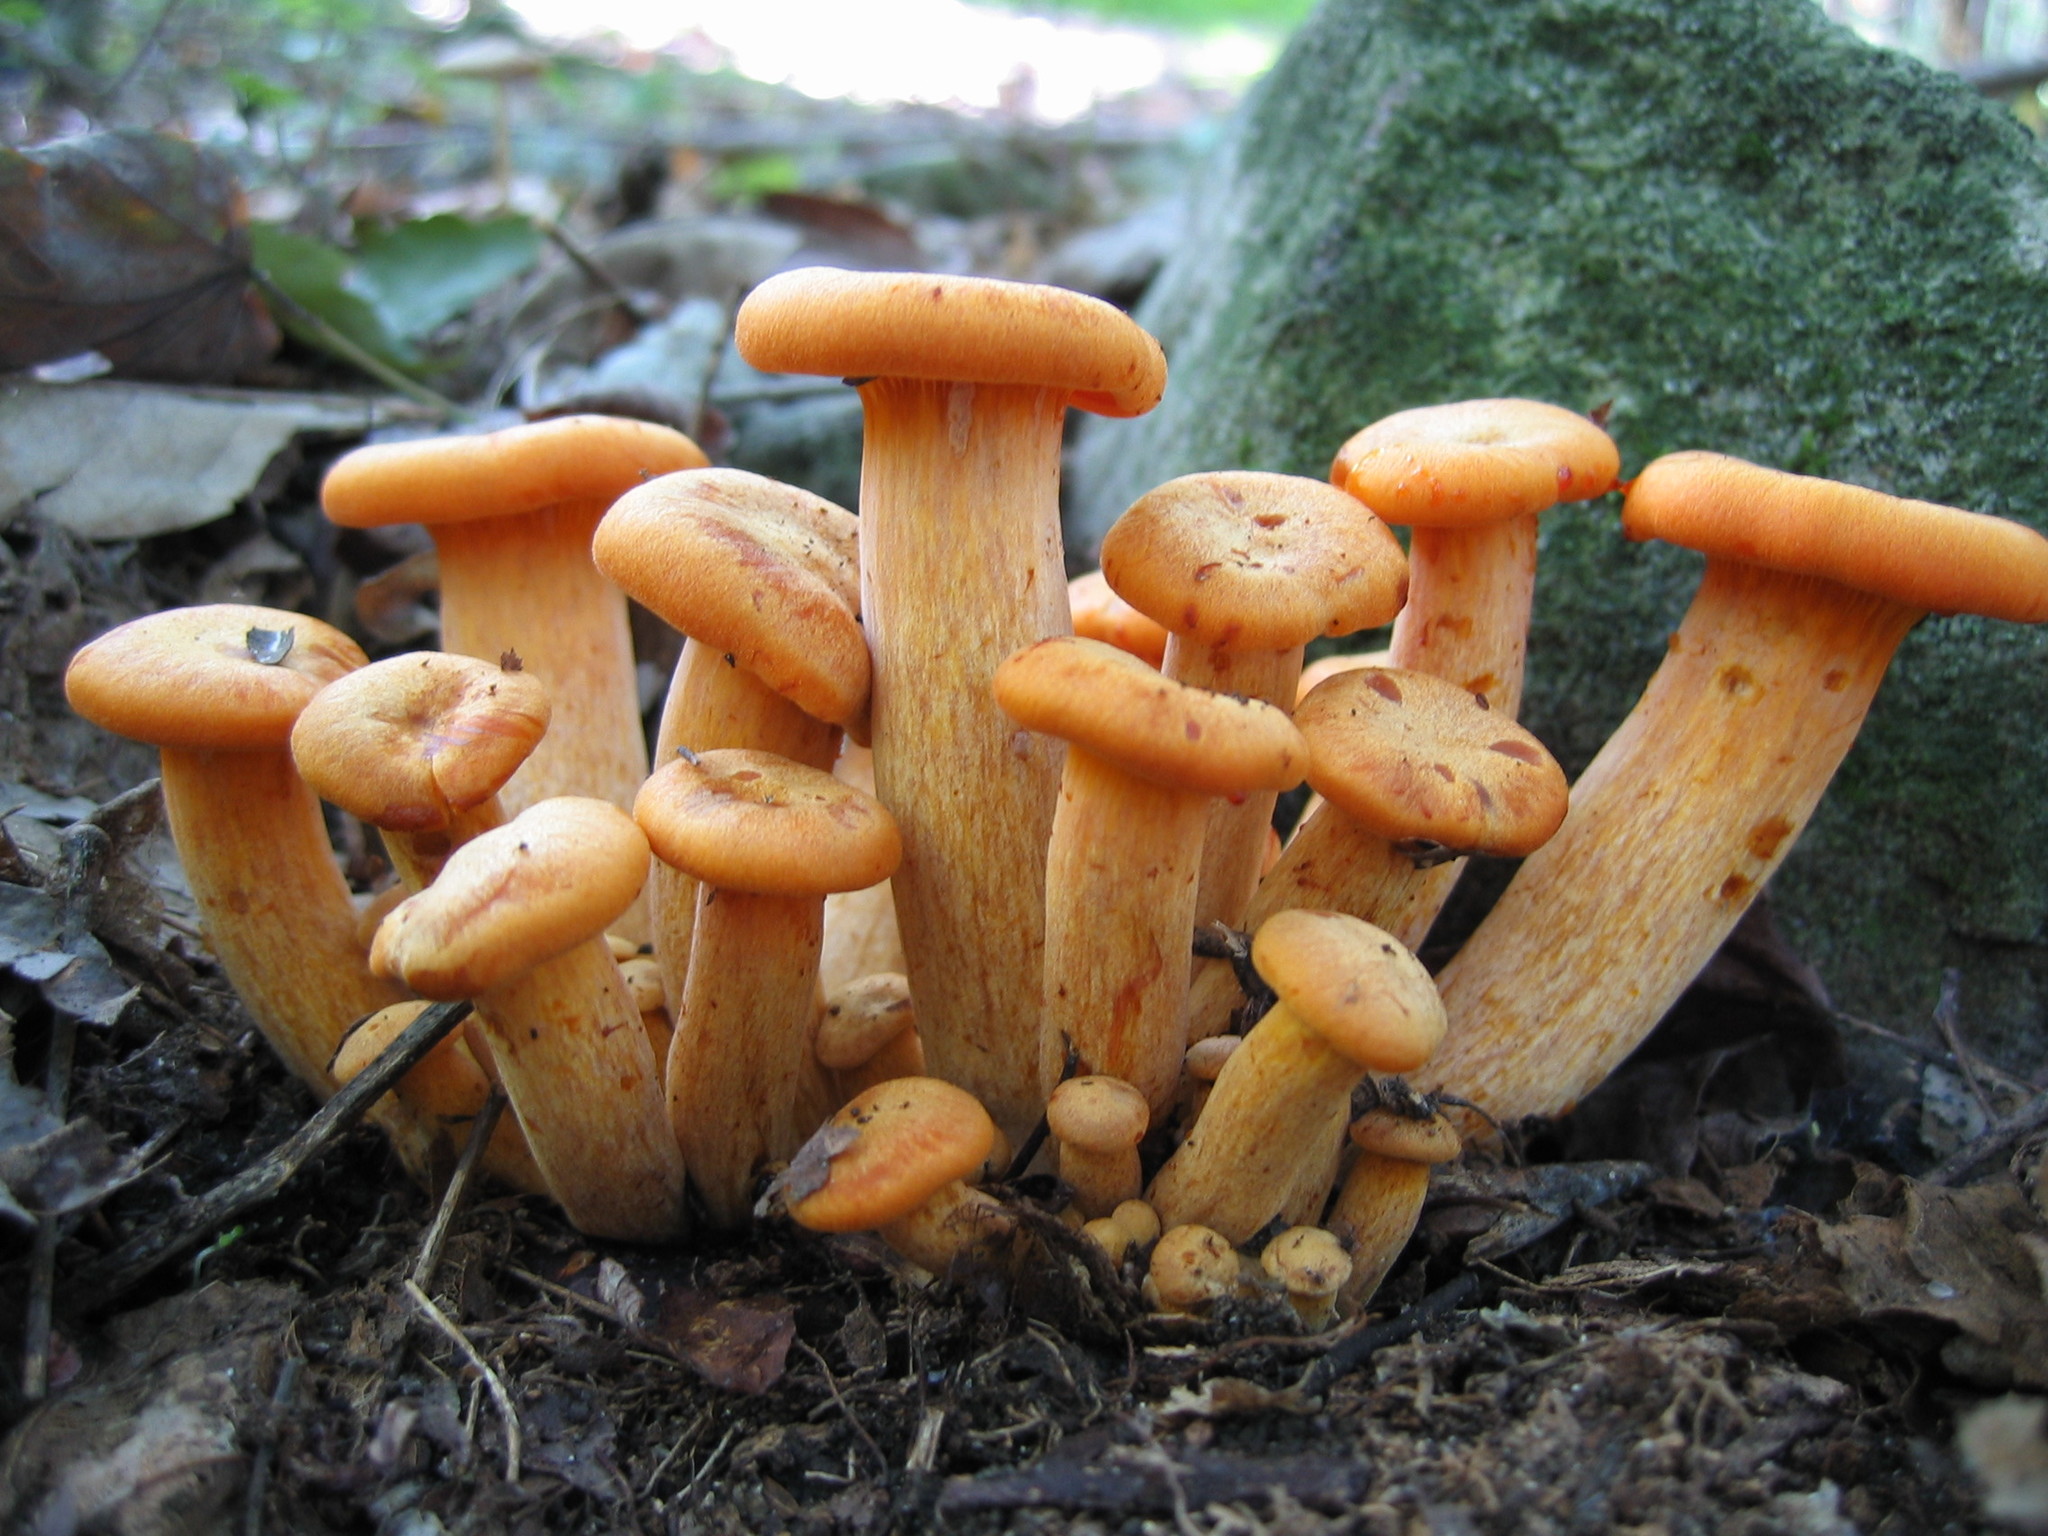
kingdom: Fungi
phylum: Basidiomycota
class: Agaricomycetes
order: Agaricales
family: Omphalotaceae
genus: Omphalotus
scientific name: Omphalotus illudens
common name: Jack o lantern
